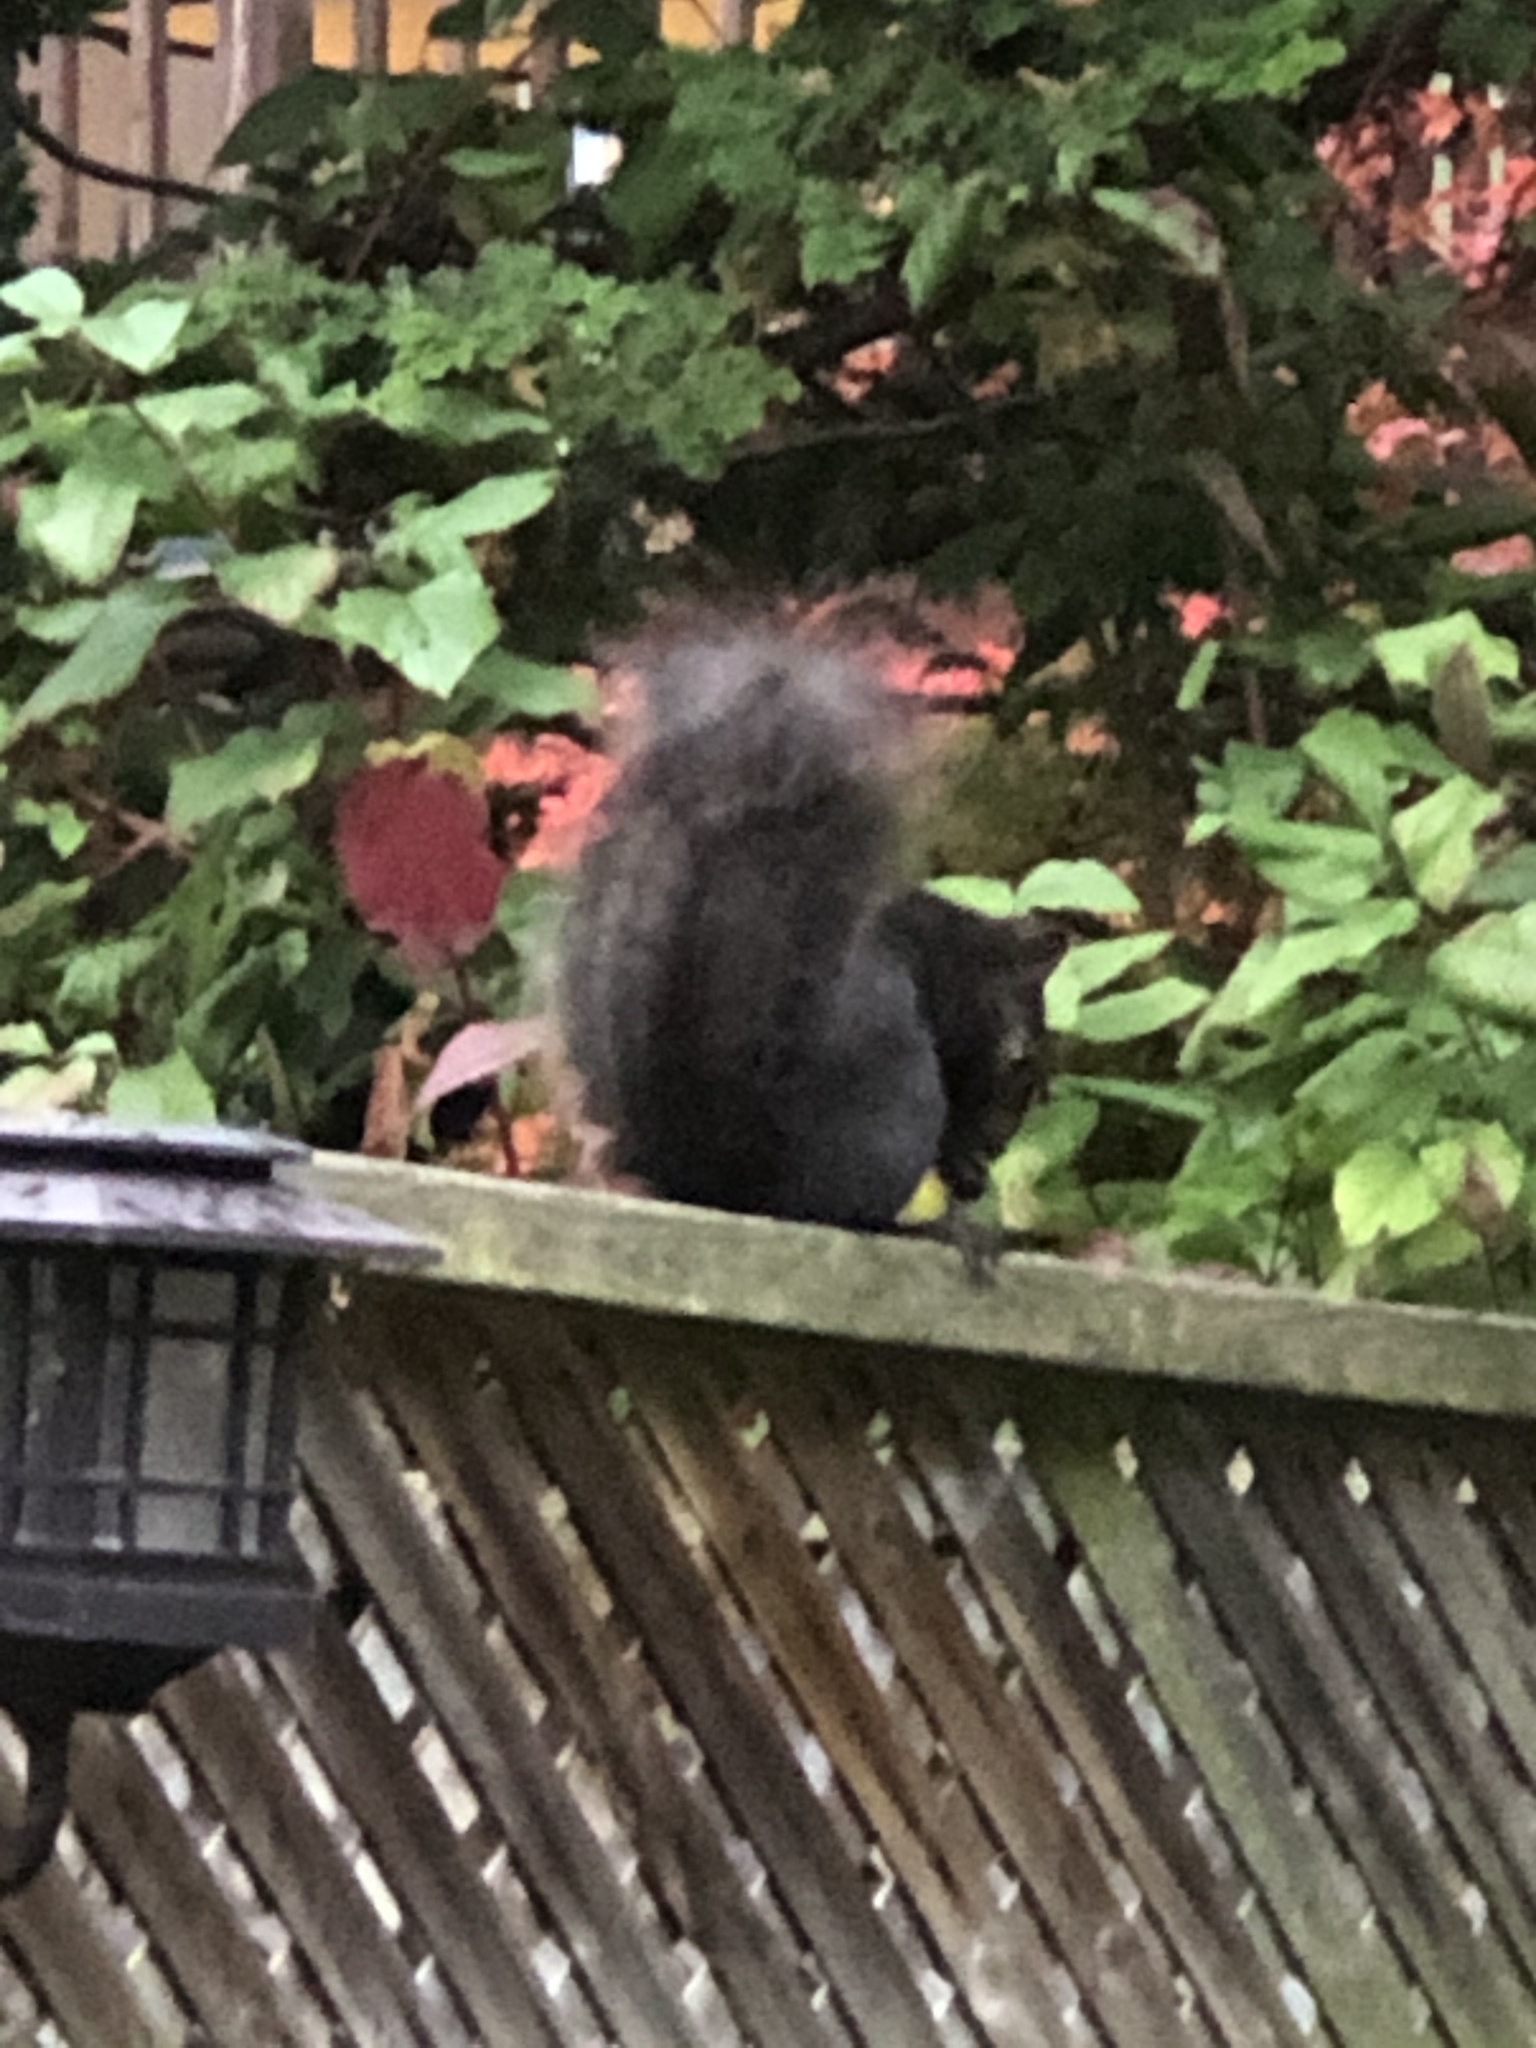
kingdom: Animalia
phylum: Chordata
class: Mammalia
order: Rodentia
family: Sciuridae
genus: Sciurus
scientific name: Sciurus carolinensis
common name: Eastern gray squirrel
